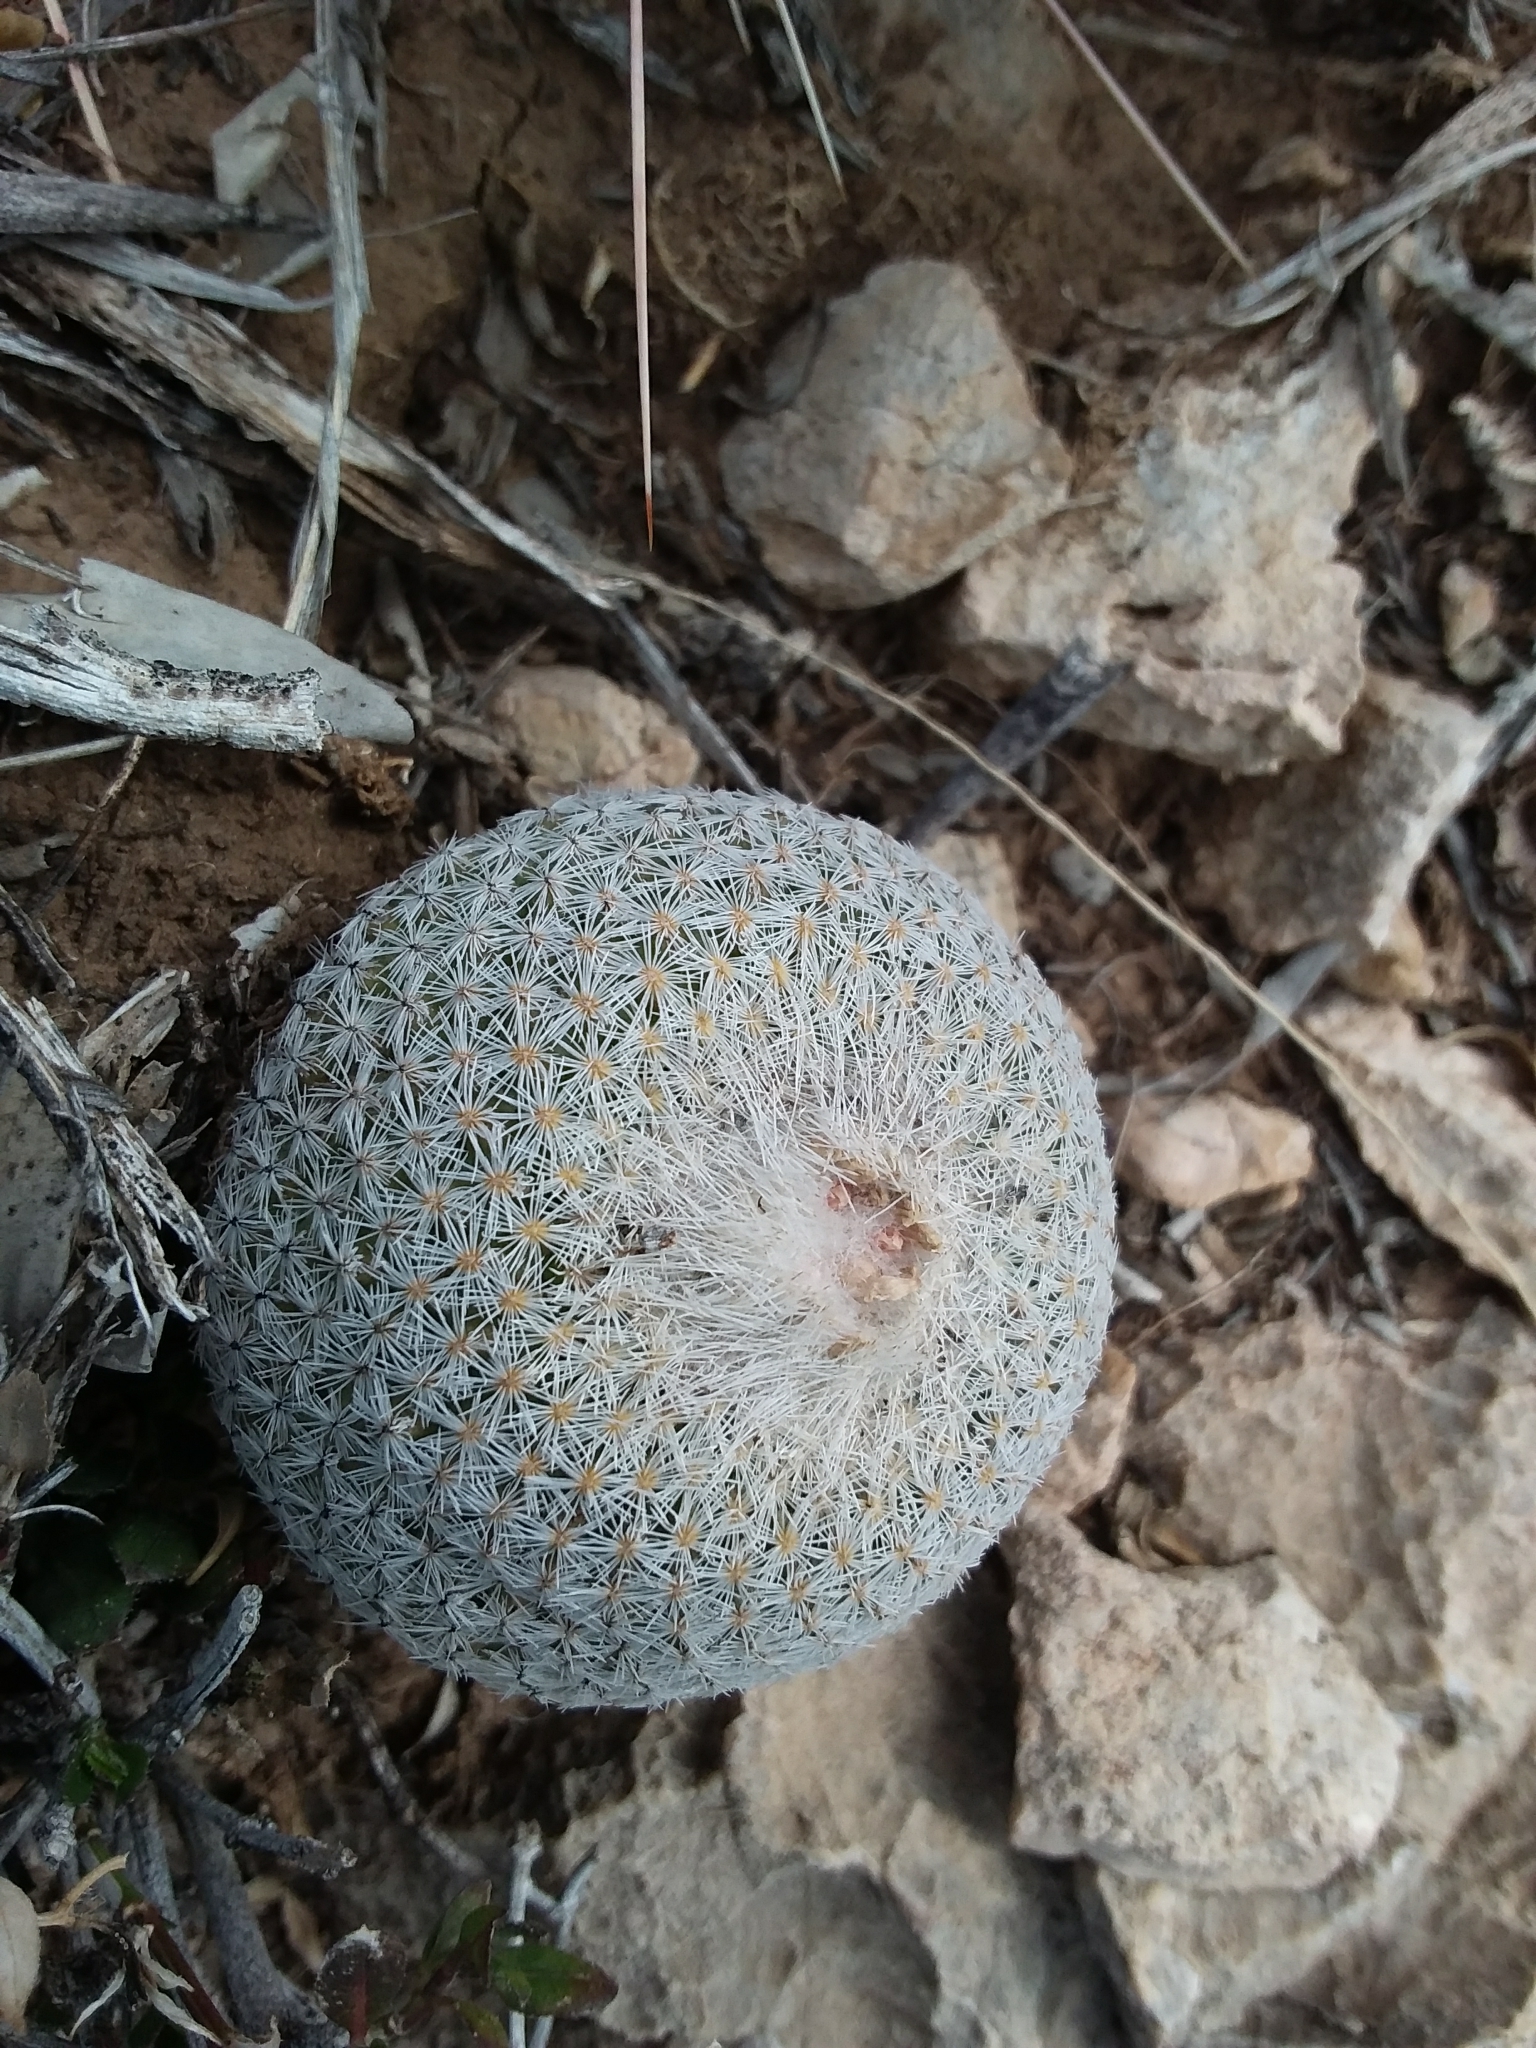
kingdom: Plantae
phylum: Tracheophyta
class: Magnoliopsida
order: Caryophyllales
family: Cactaceae
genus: Epithelantha
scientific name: Epithelantha micromeris
